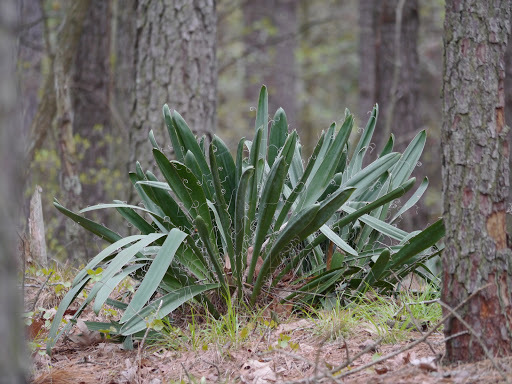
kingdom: Plantae
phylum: Tracheophyta
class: Liliopsida
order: Asparagales
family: Asparagaceae
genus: Yucca
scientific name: Yucca filamentosa
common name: Adam's-needle
